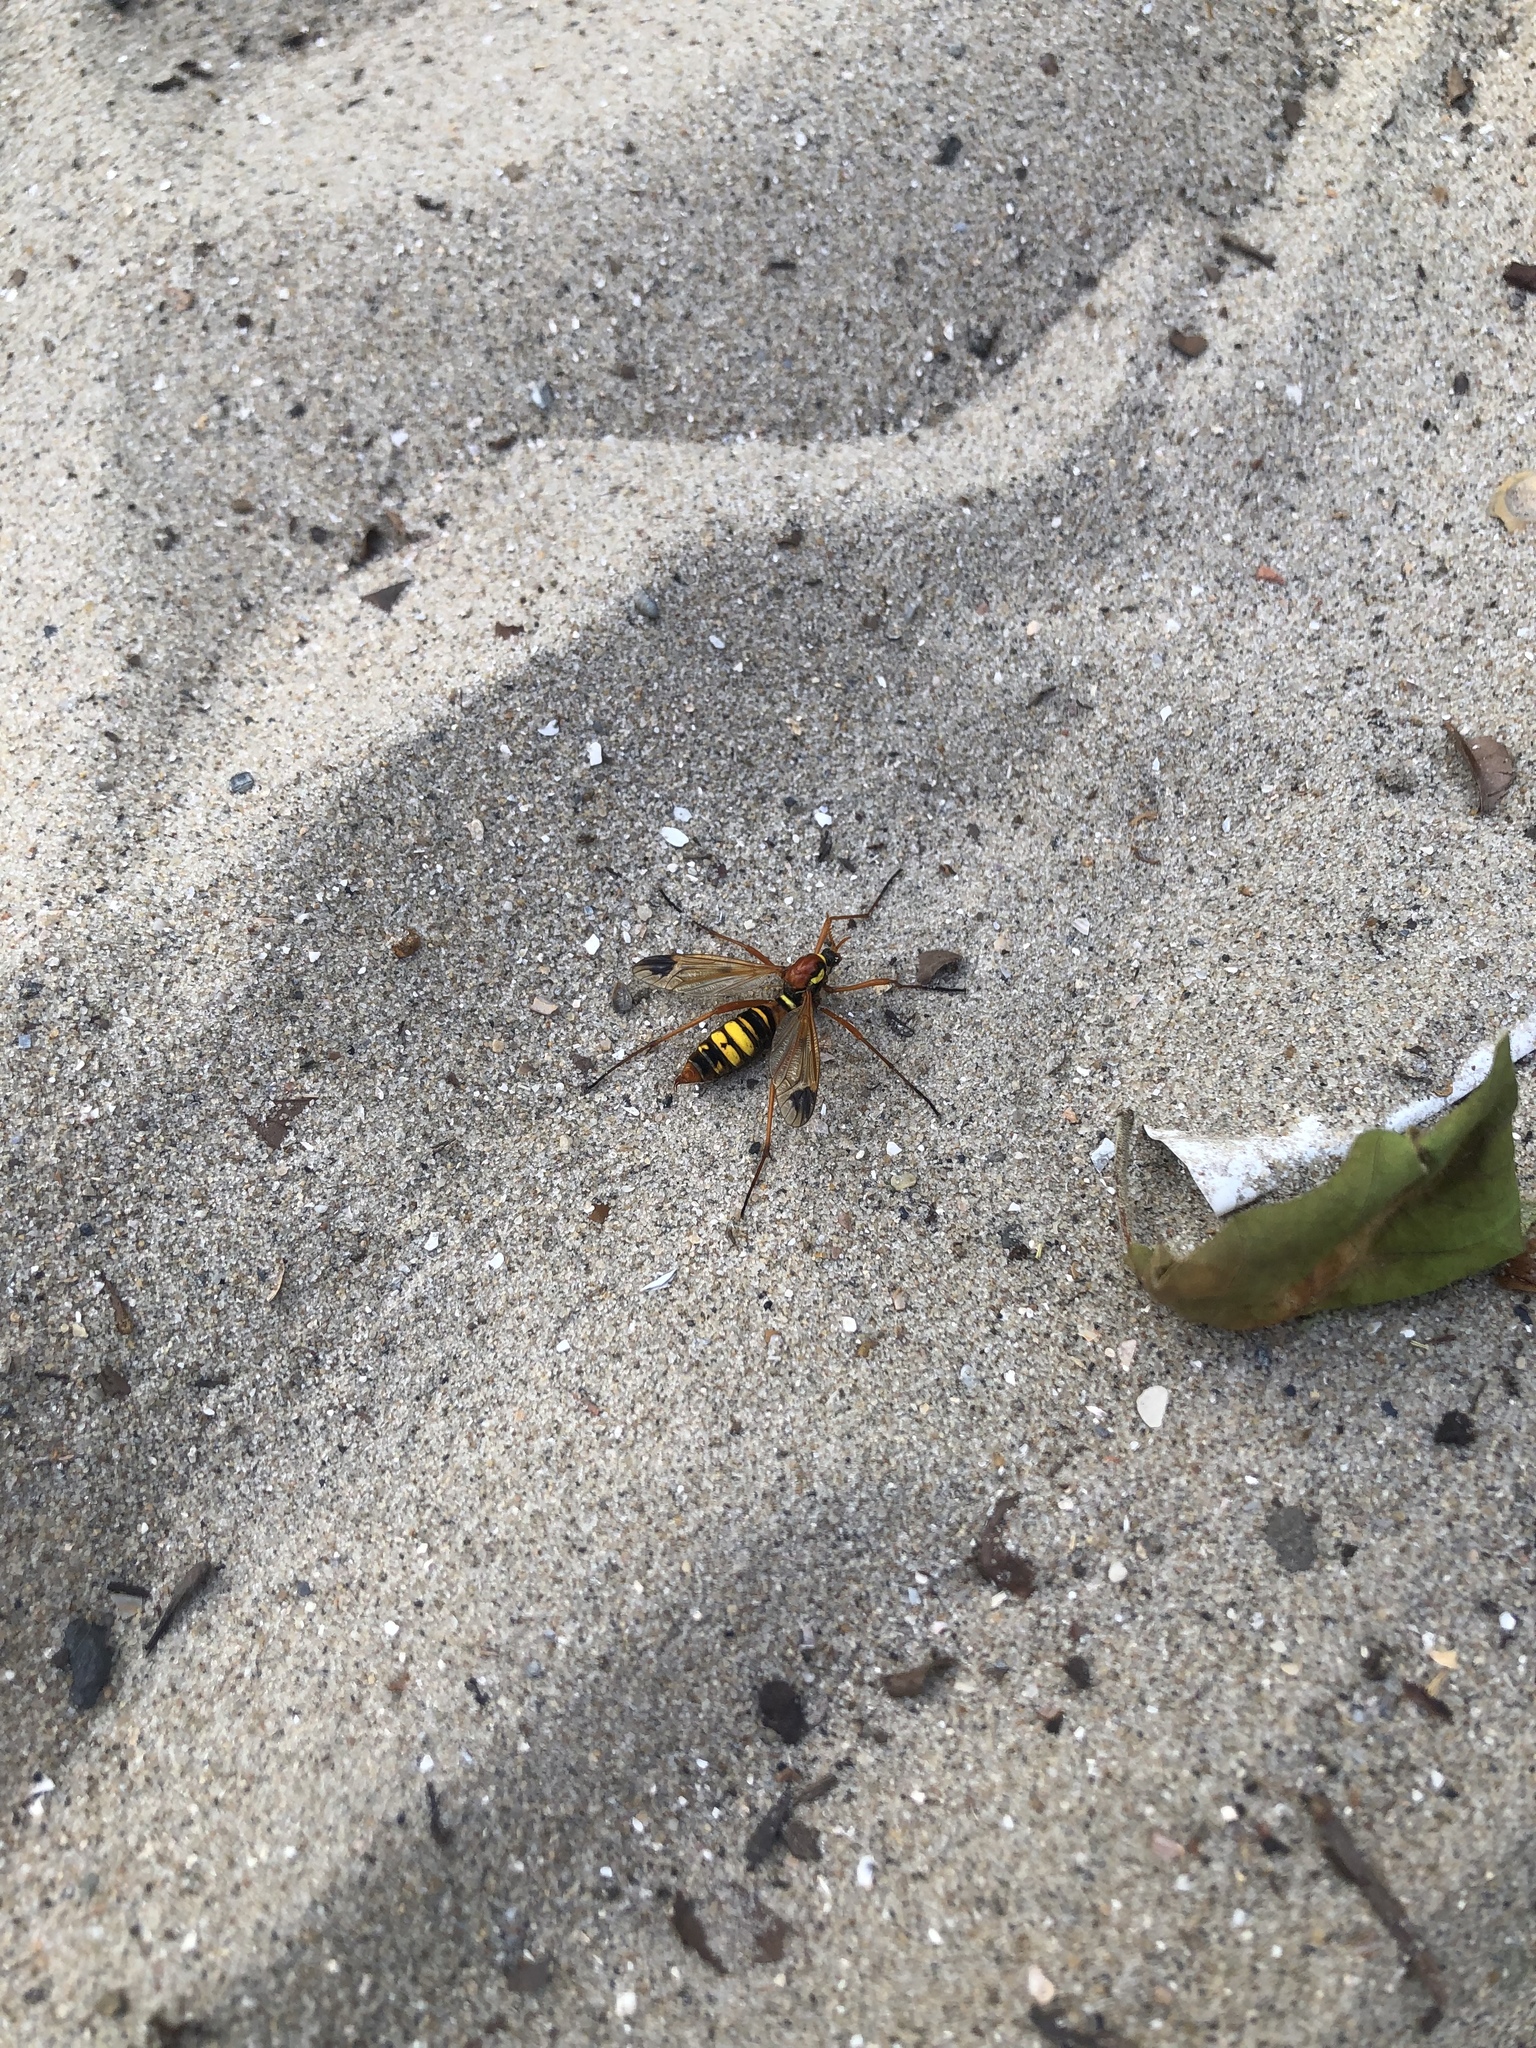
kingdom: Animalia
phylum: Arthropoda
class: Insecta
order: Diptera
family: Tipulidae
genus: Ctenophora
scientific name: Ctenophora ornata
